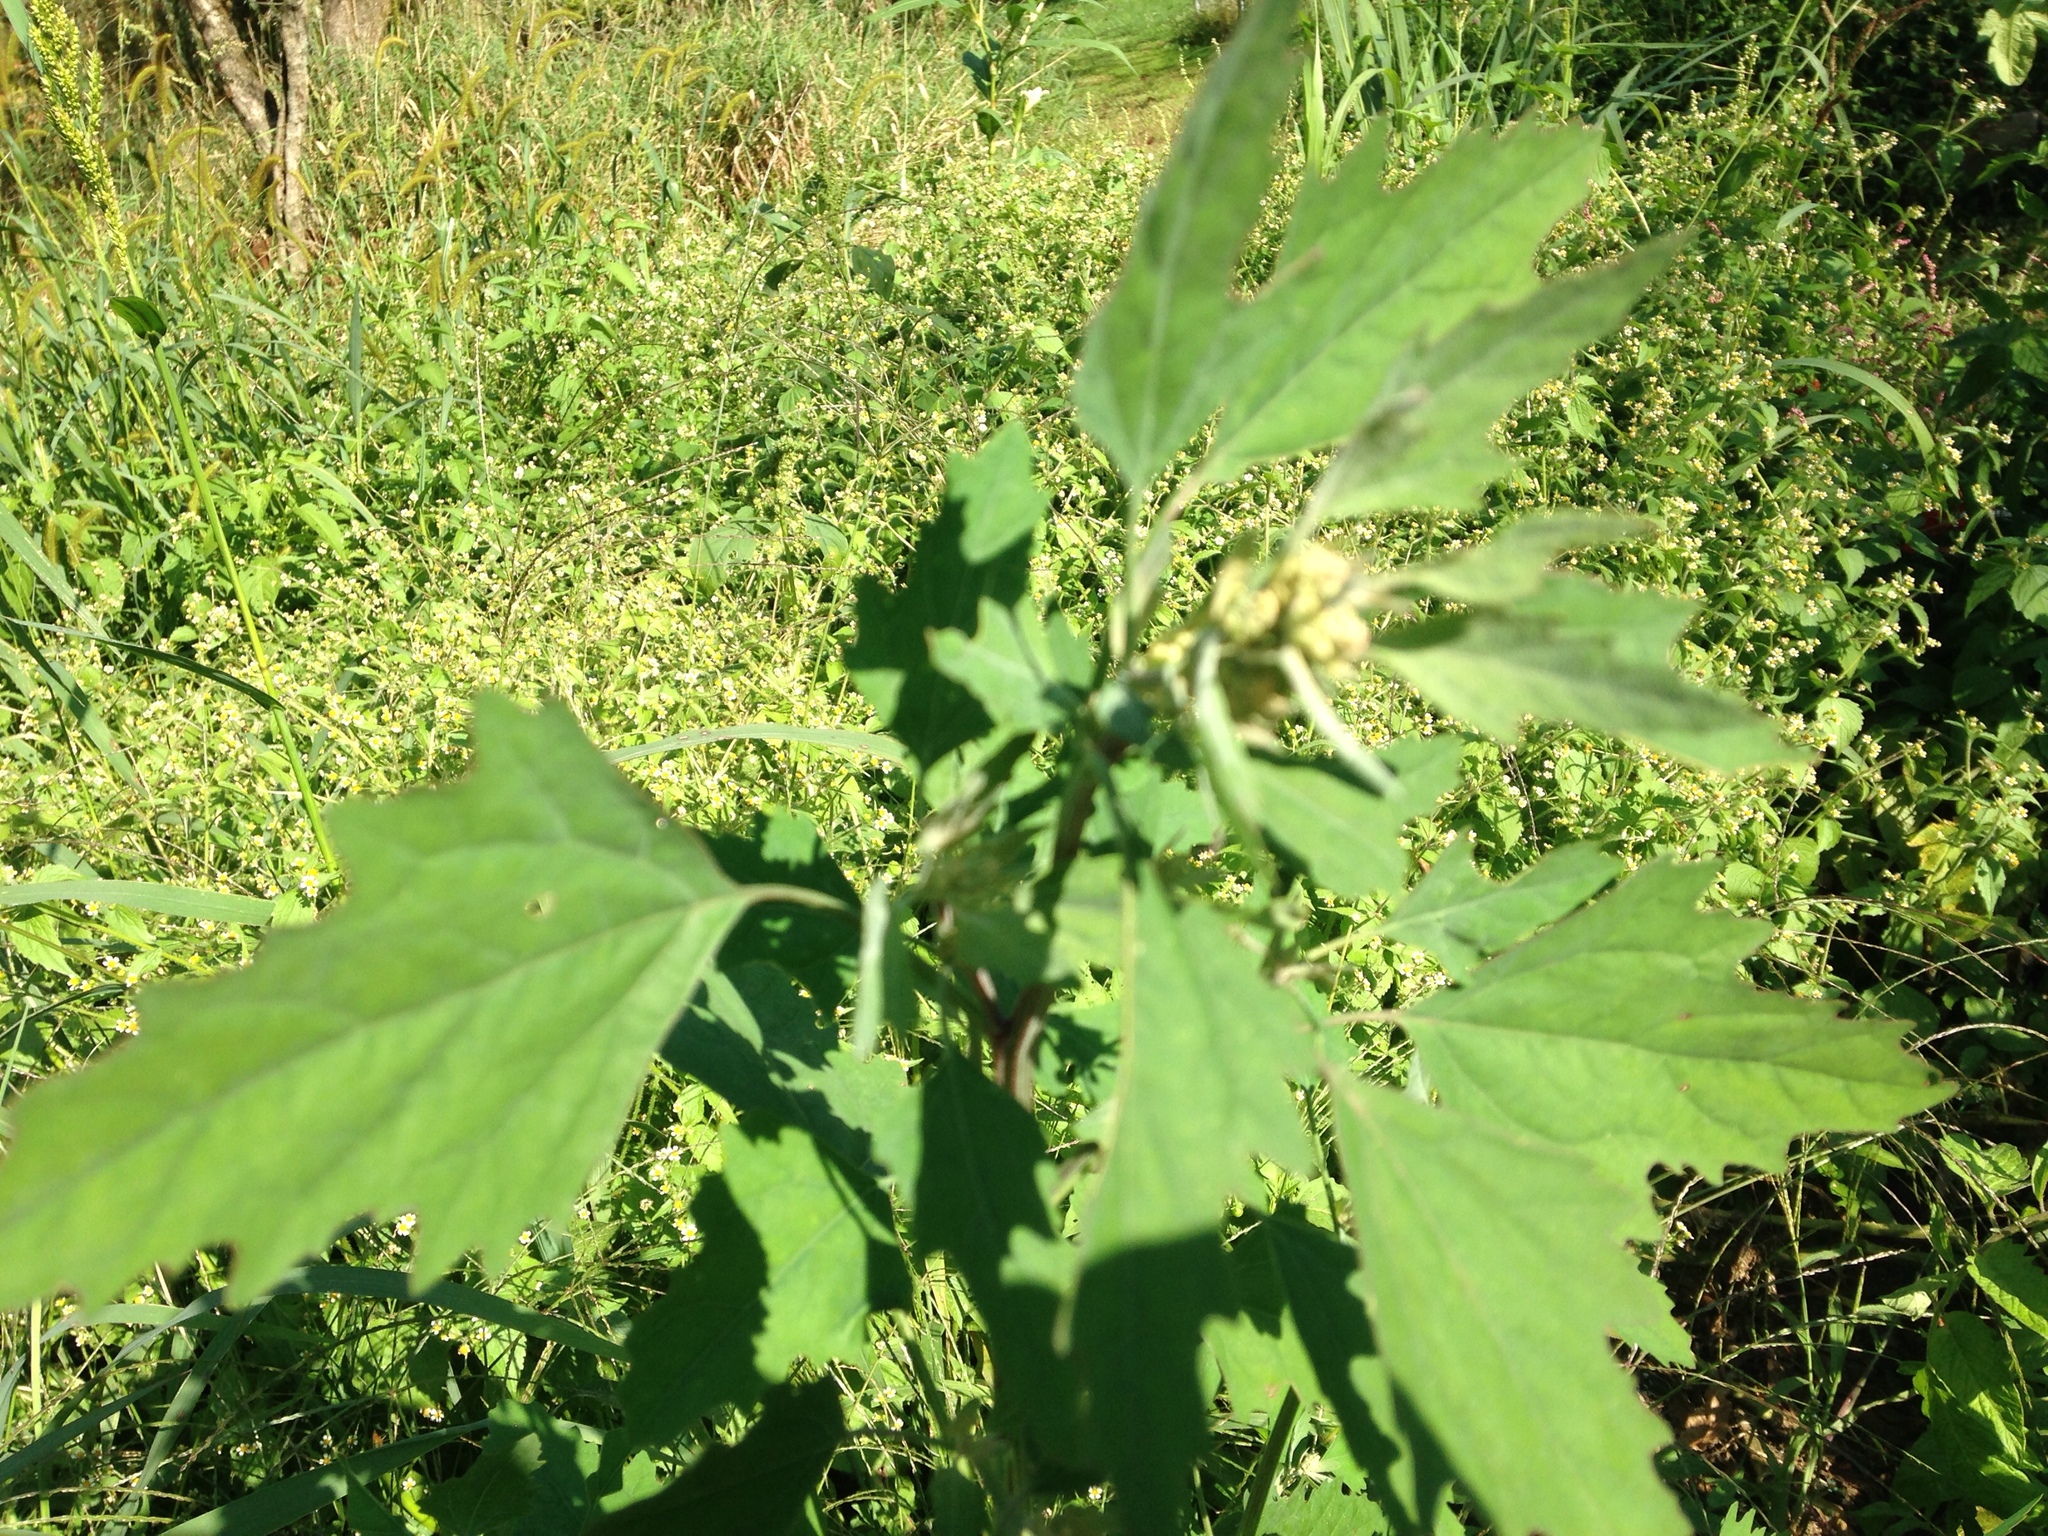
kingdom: Plantae
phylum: Tracheophyta
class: Magnoliopsida
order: Caryophyllales
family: Amaranthaceae
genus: Chenopodium
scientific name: Chenopodium album
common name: Fat-hen
